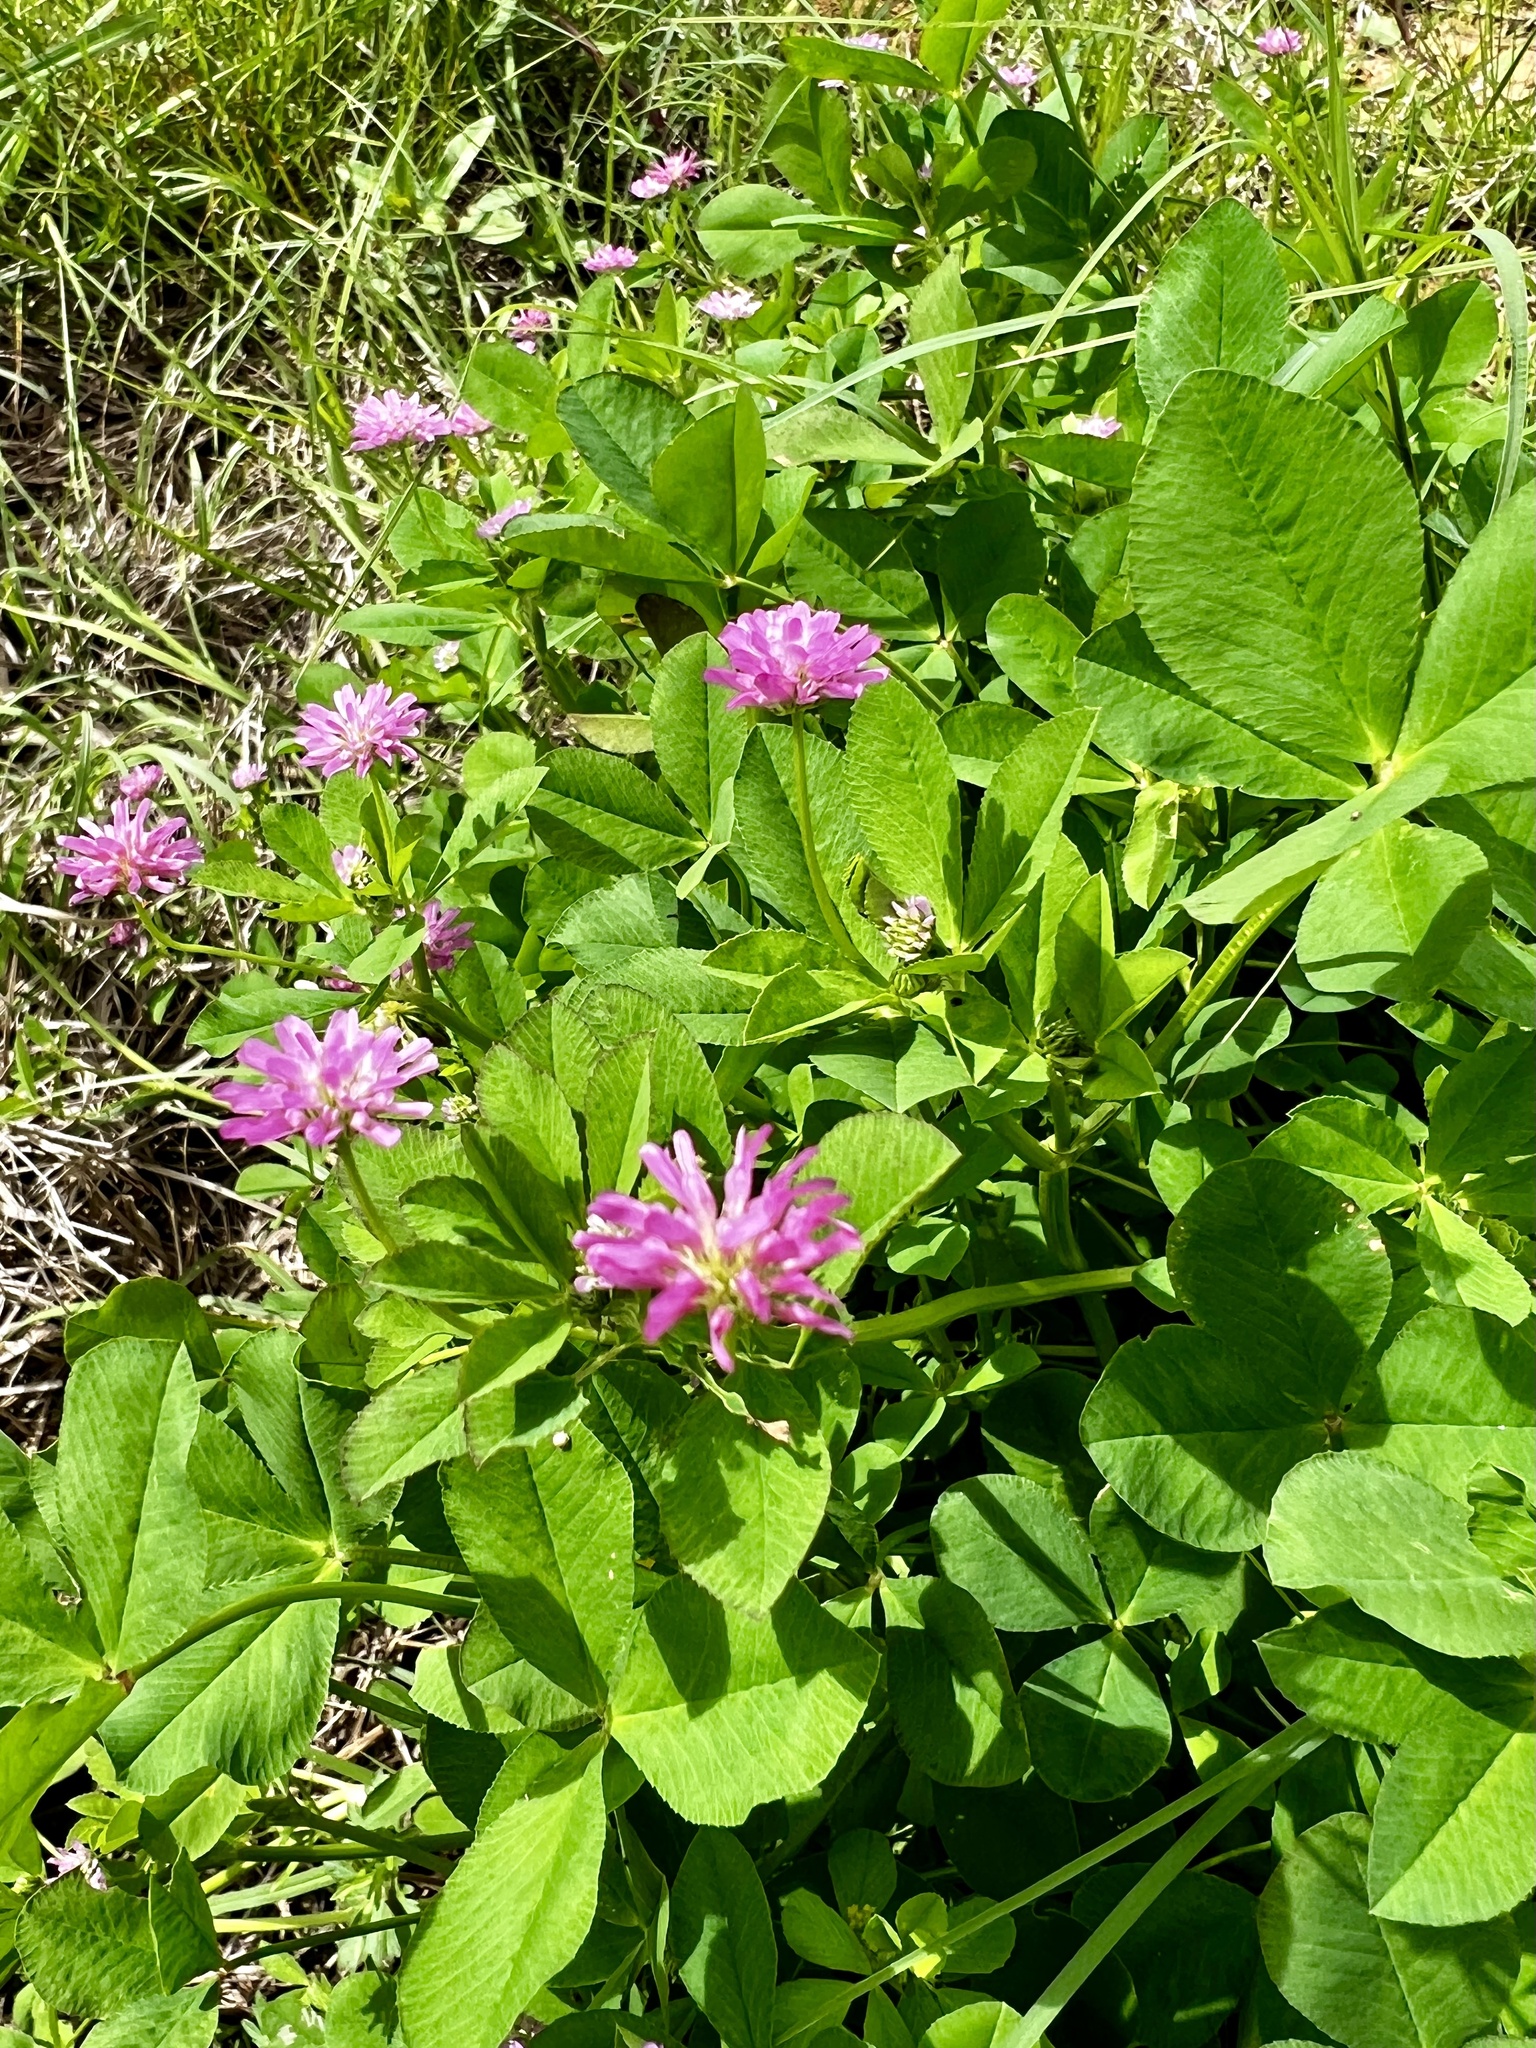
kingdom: Plantae
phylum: Tracheophyta
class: Magnoliopsida
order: Fabales
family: Fabaceae
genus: Trifolium
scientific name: Trifolium resupinatum
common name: Reversed clover
